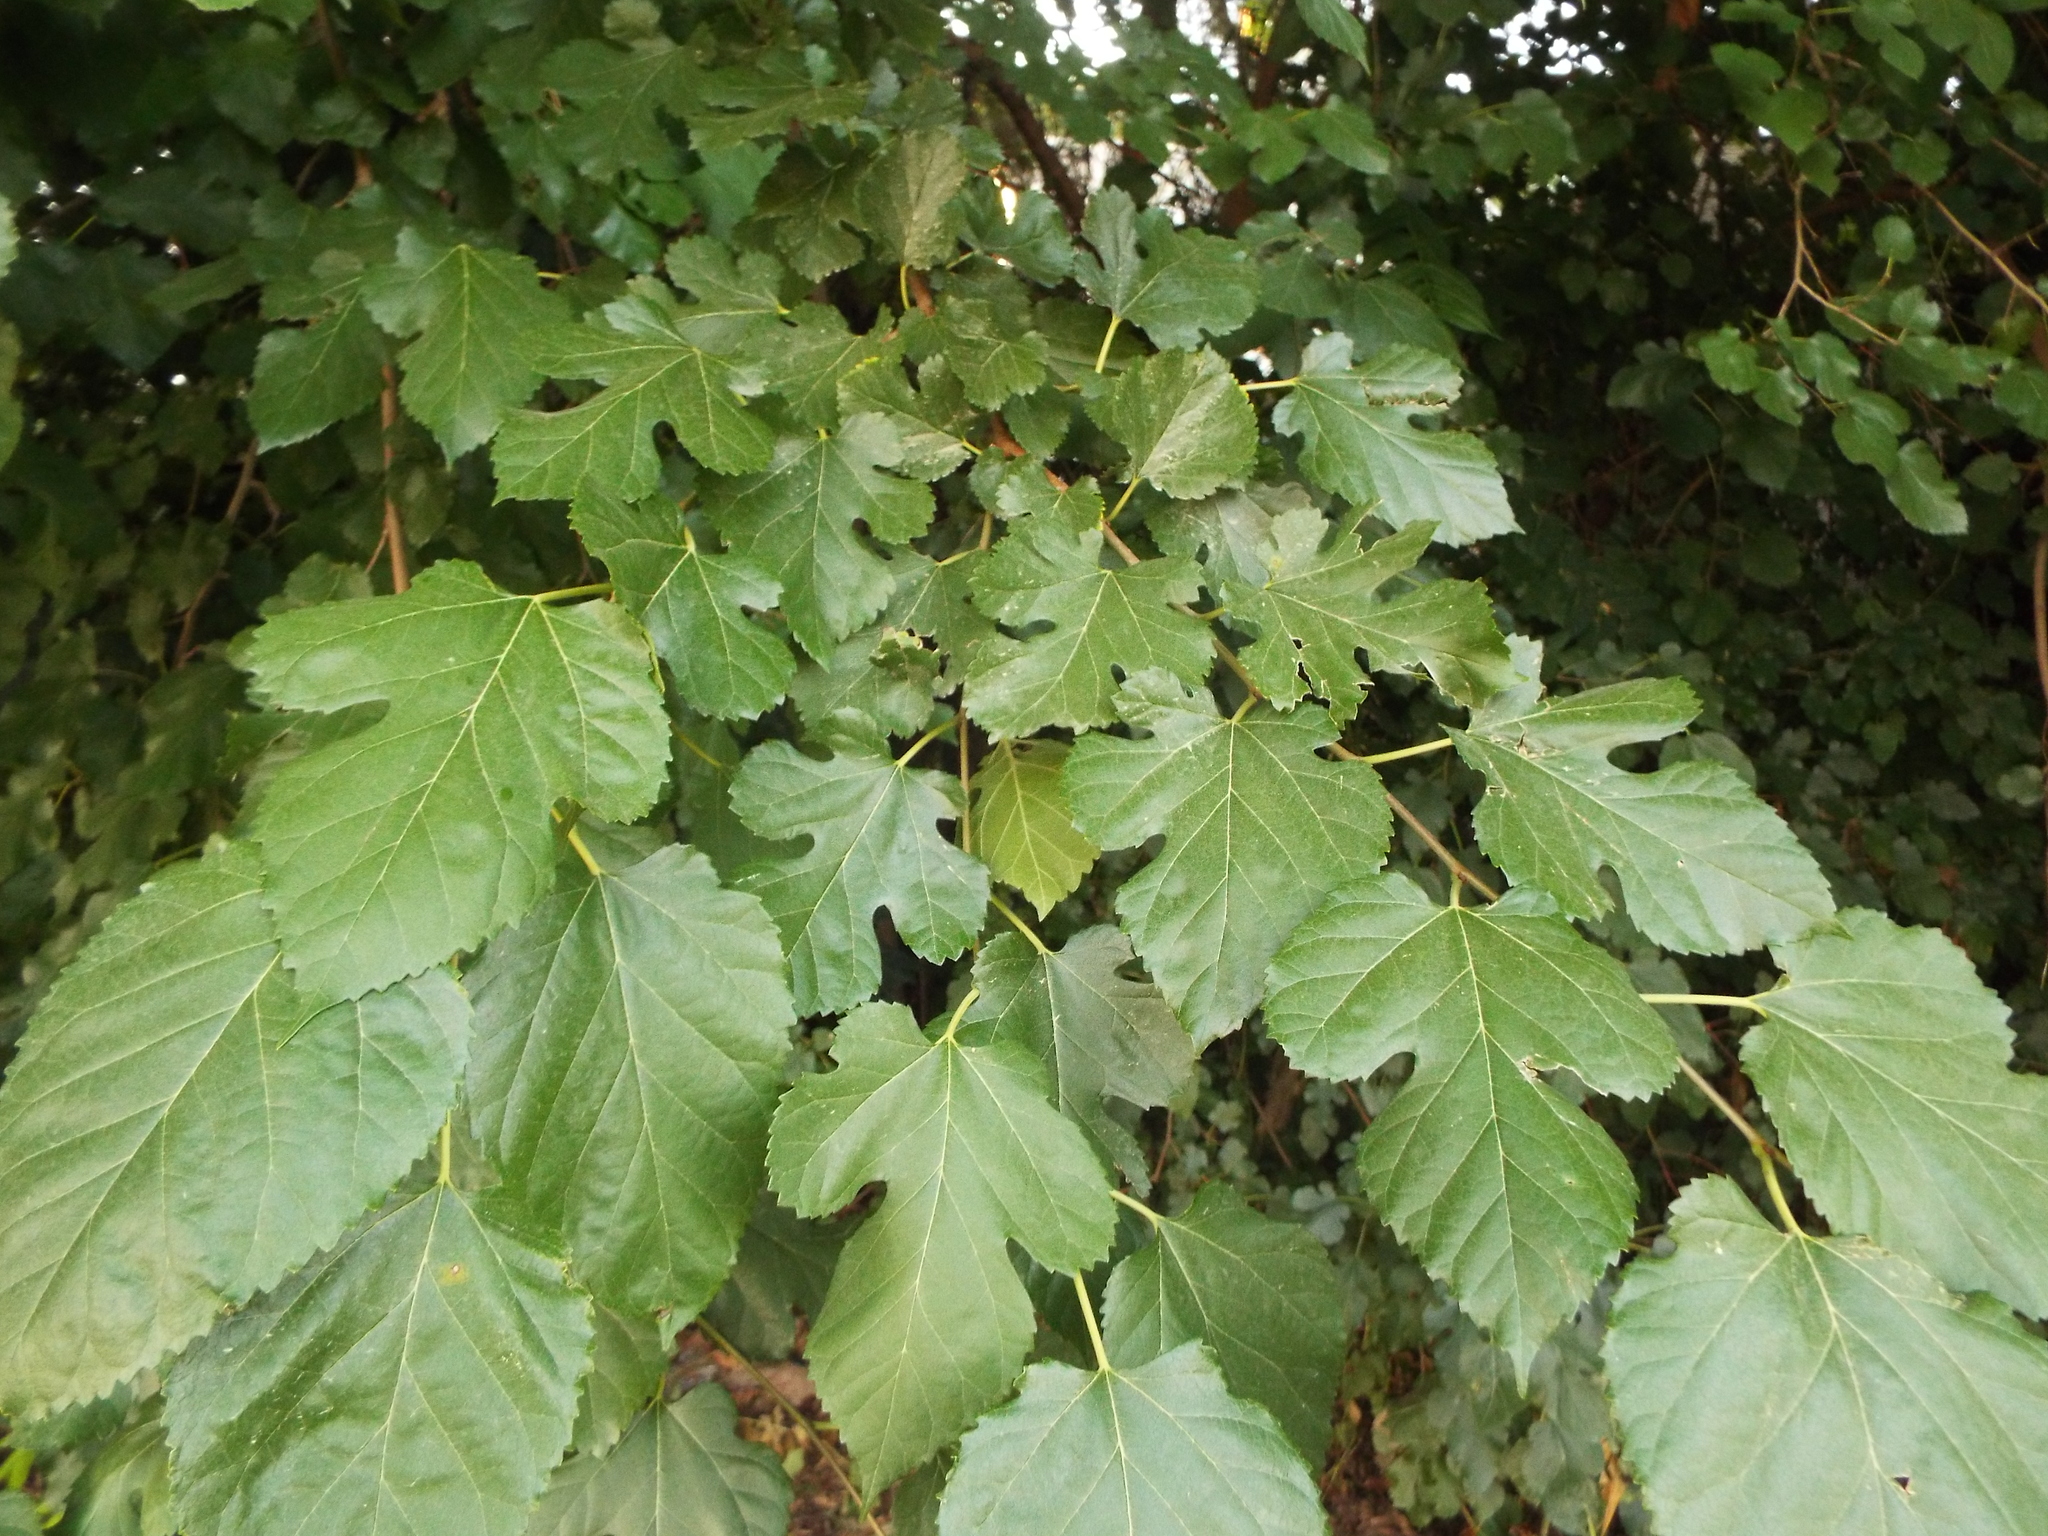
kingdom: Plantae
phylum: Tracheophyta
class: Magnoliopsida
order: Rosales
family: Moraceae
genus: Morus
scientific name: Morus alba
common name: White mulberry
